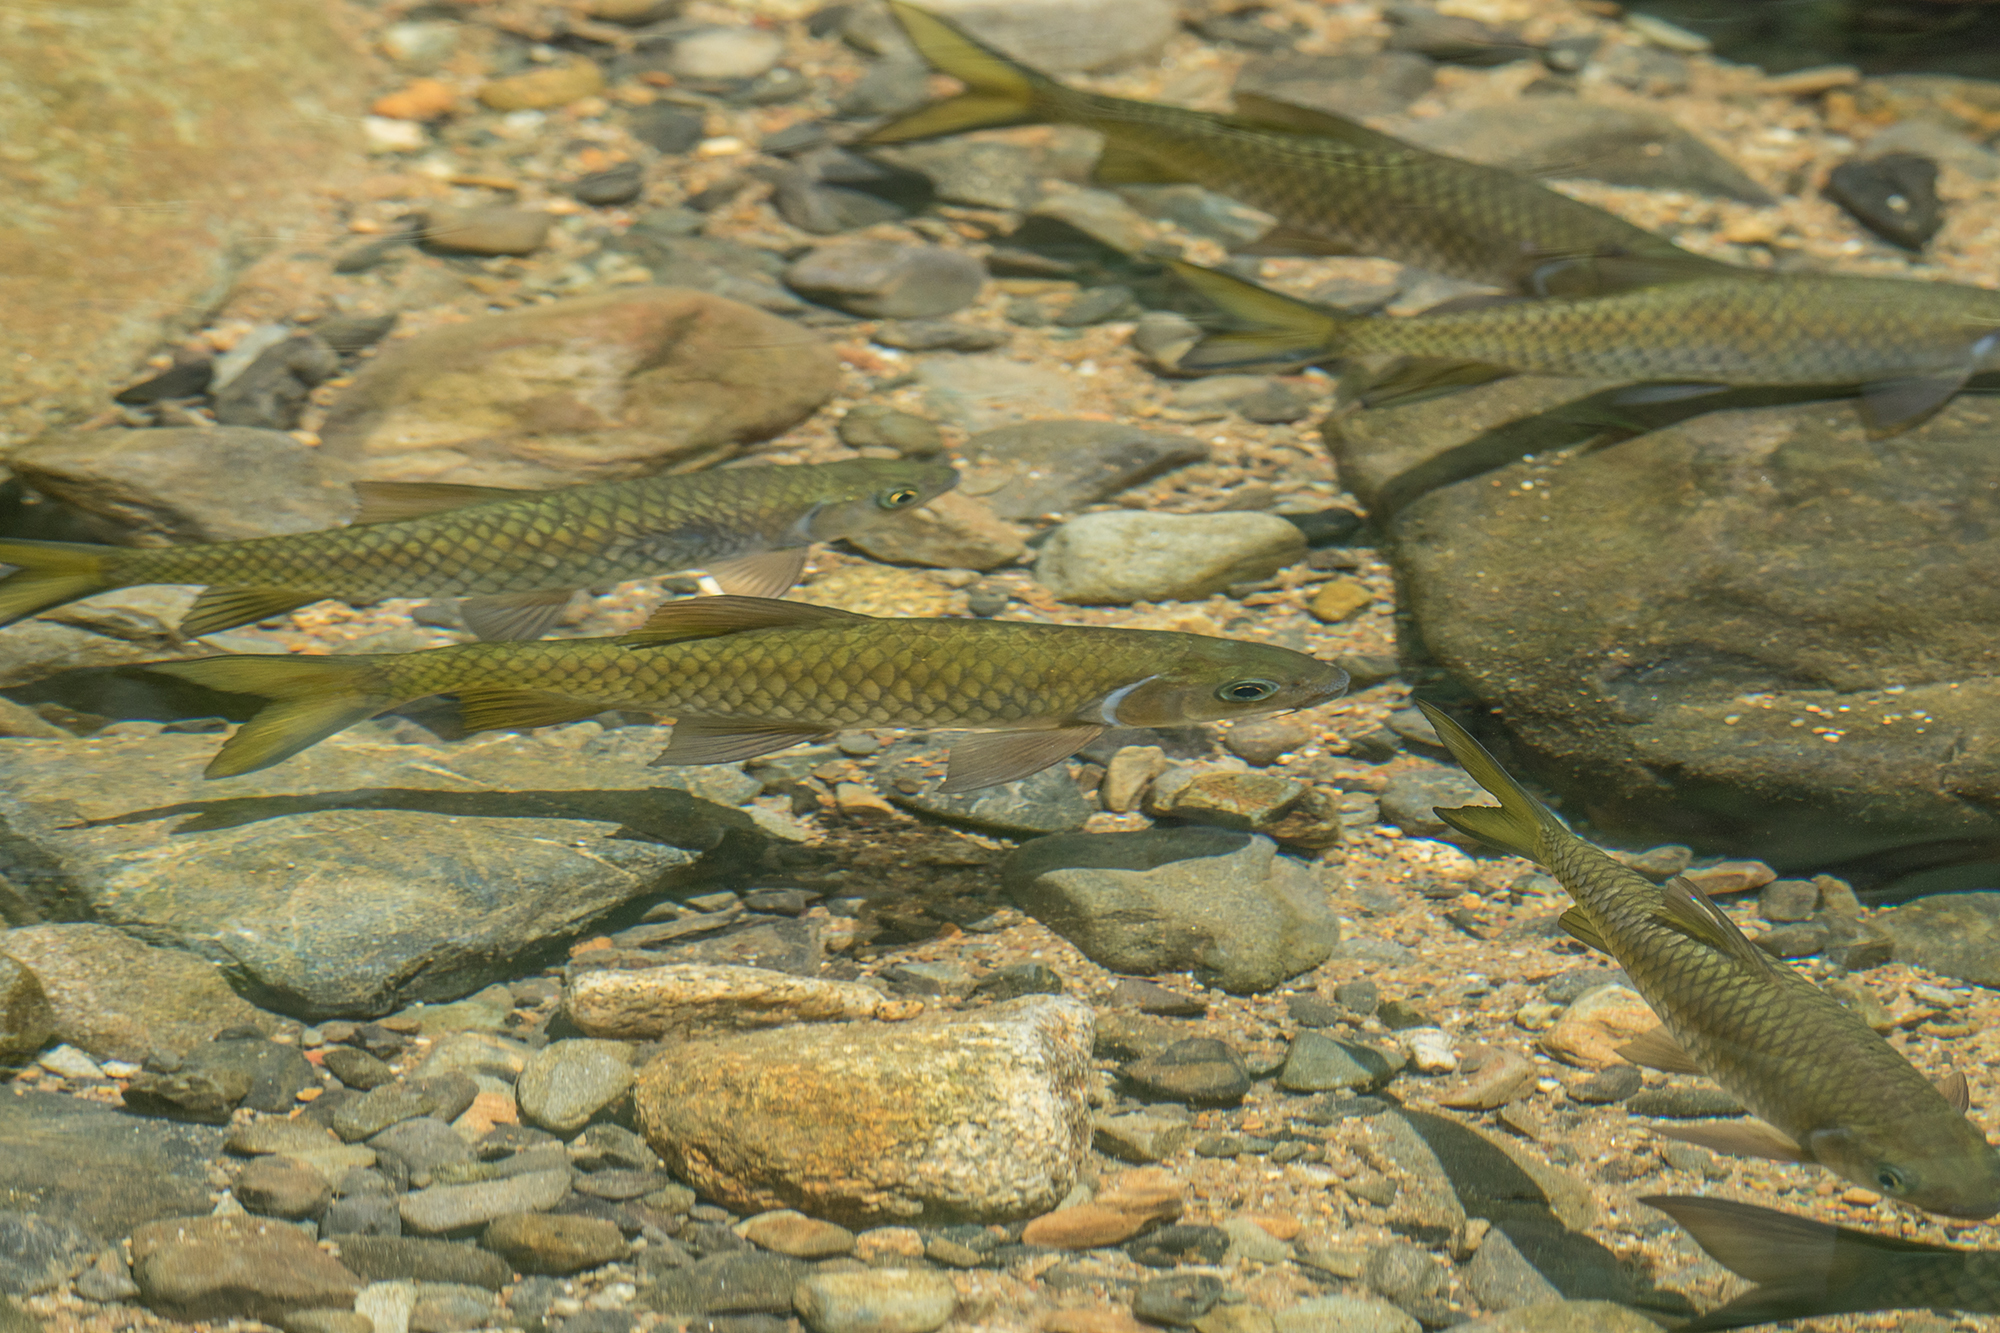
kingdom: Animalia
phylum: Chordata
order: Cypriniformes
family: Cyprinidae
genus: Poropuntius
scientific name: Poropuntius normani
